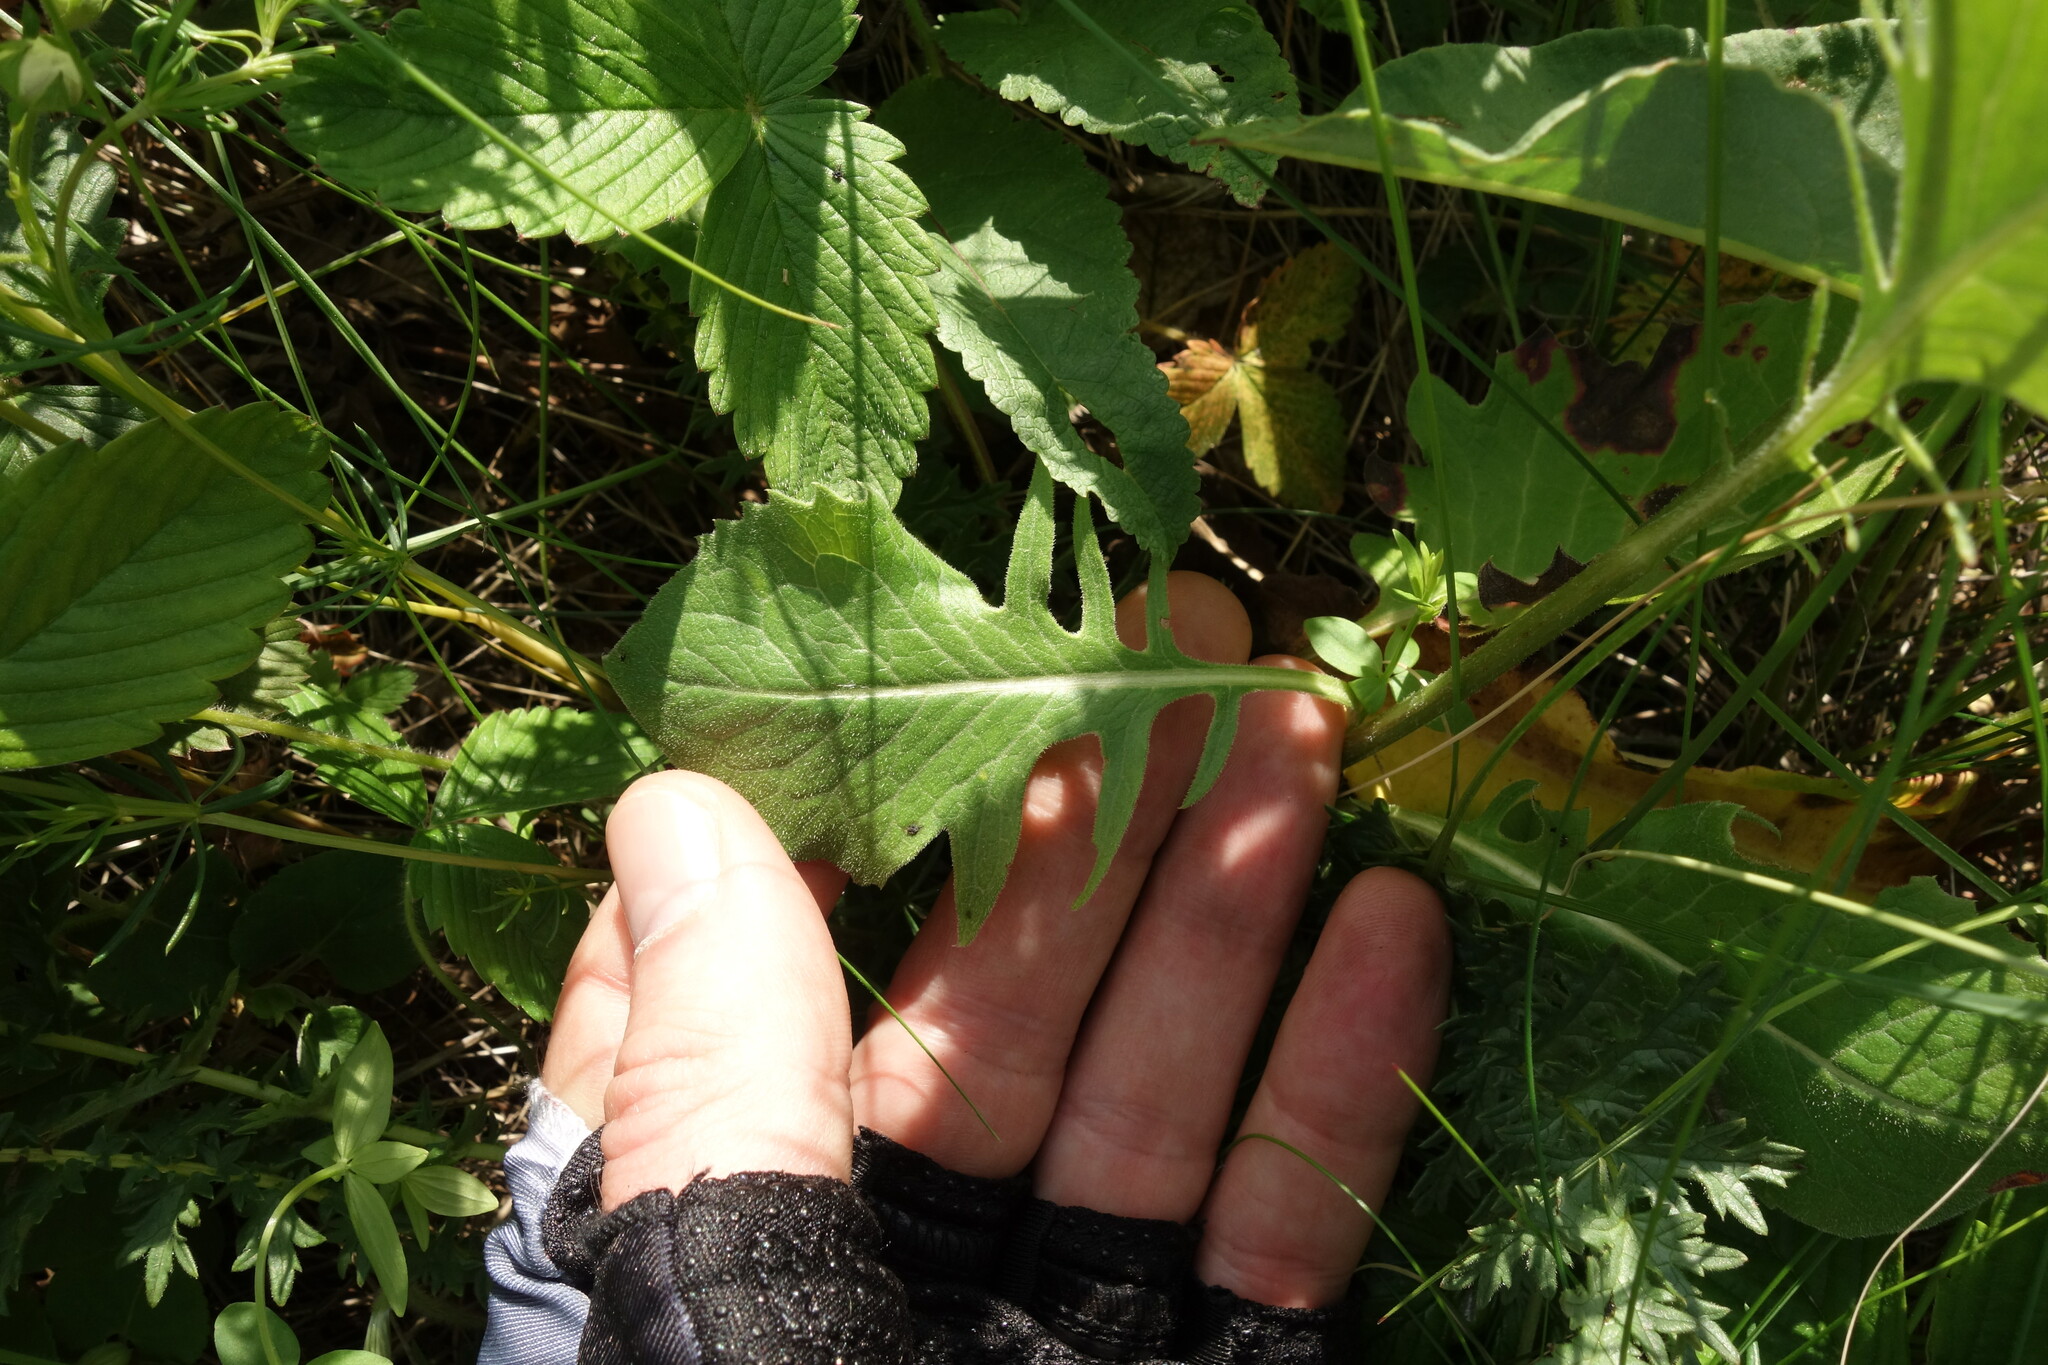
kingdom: Plantae
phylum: Tracheophyta
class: Magnoliopsida
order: Asterales
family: Asteraceae
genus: Klasea
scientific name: Klasea lycopifolia
